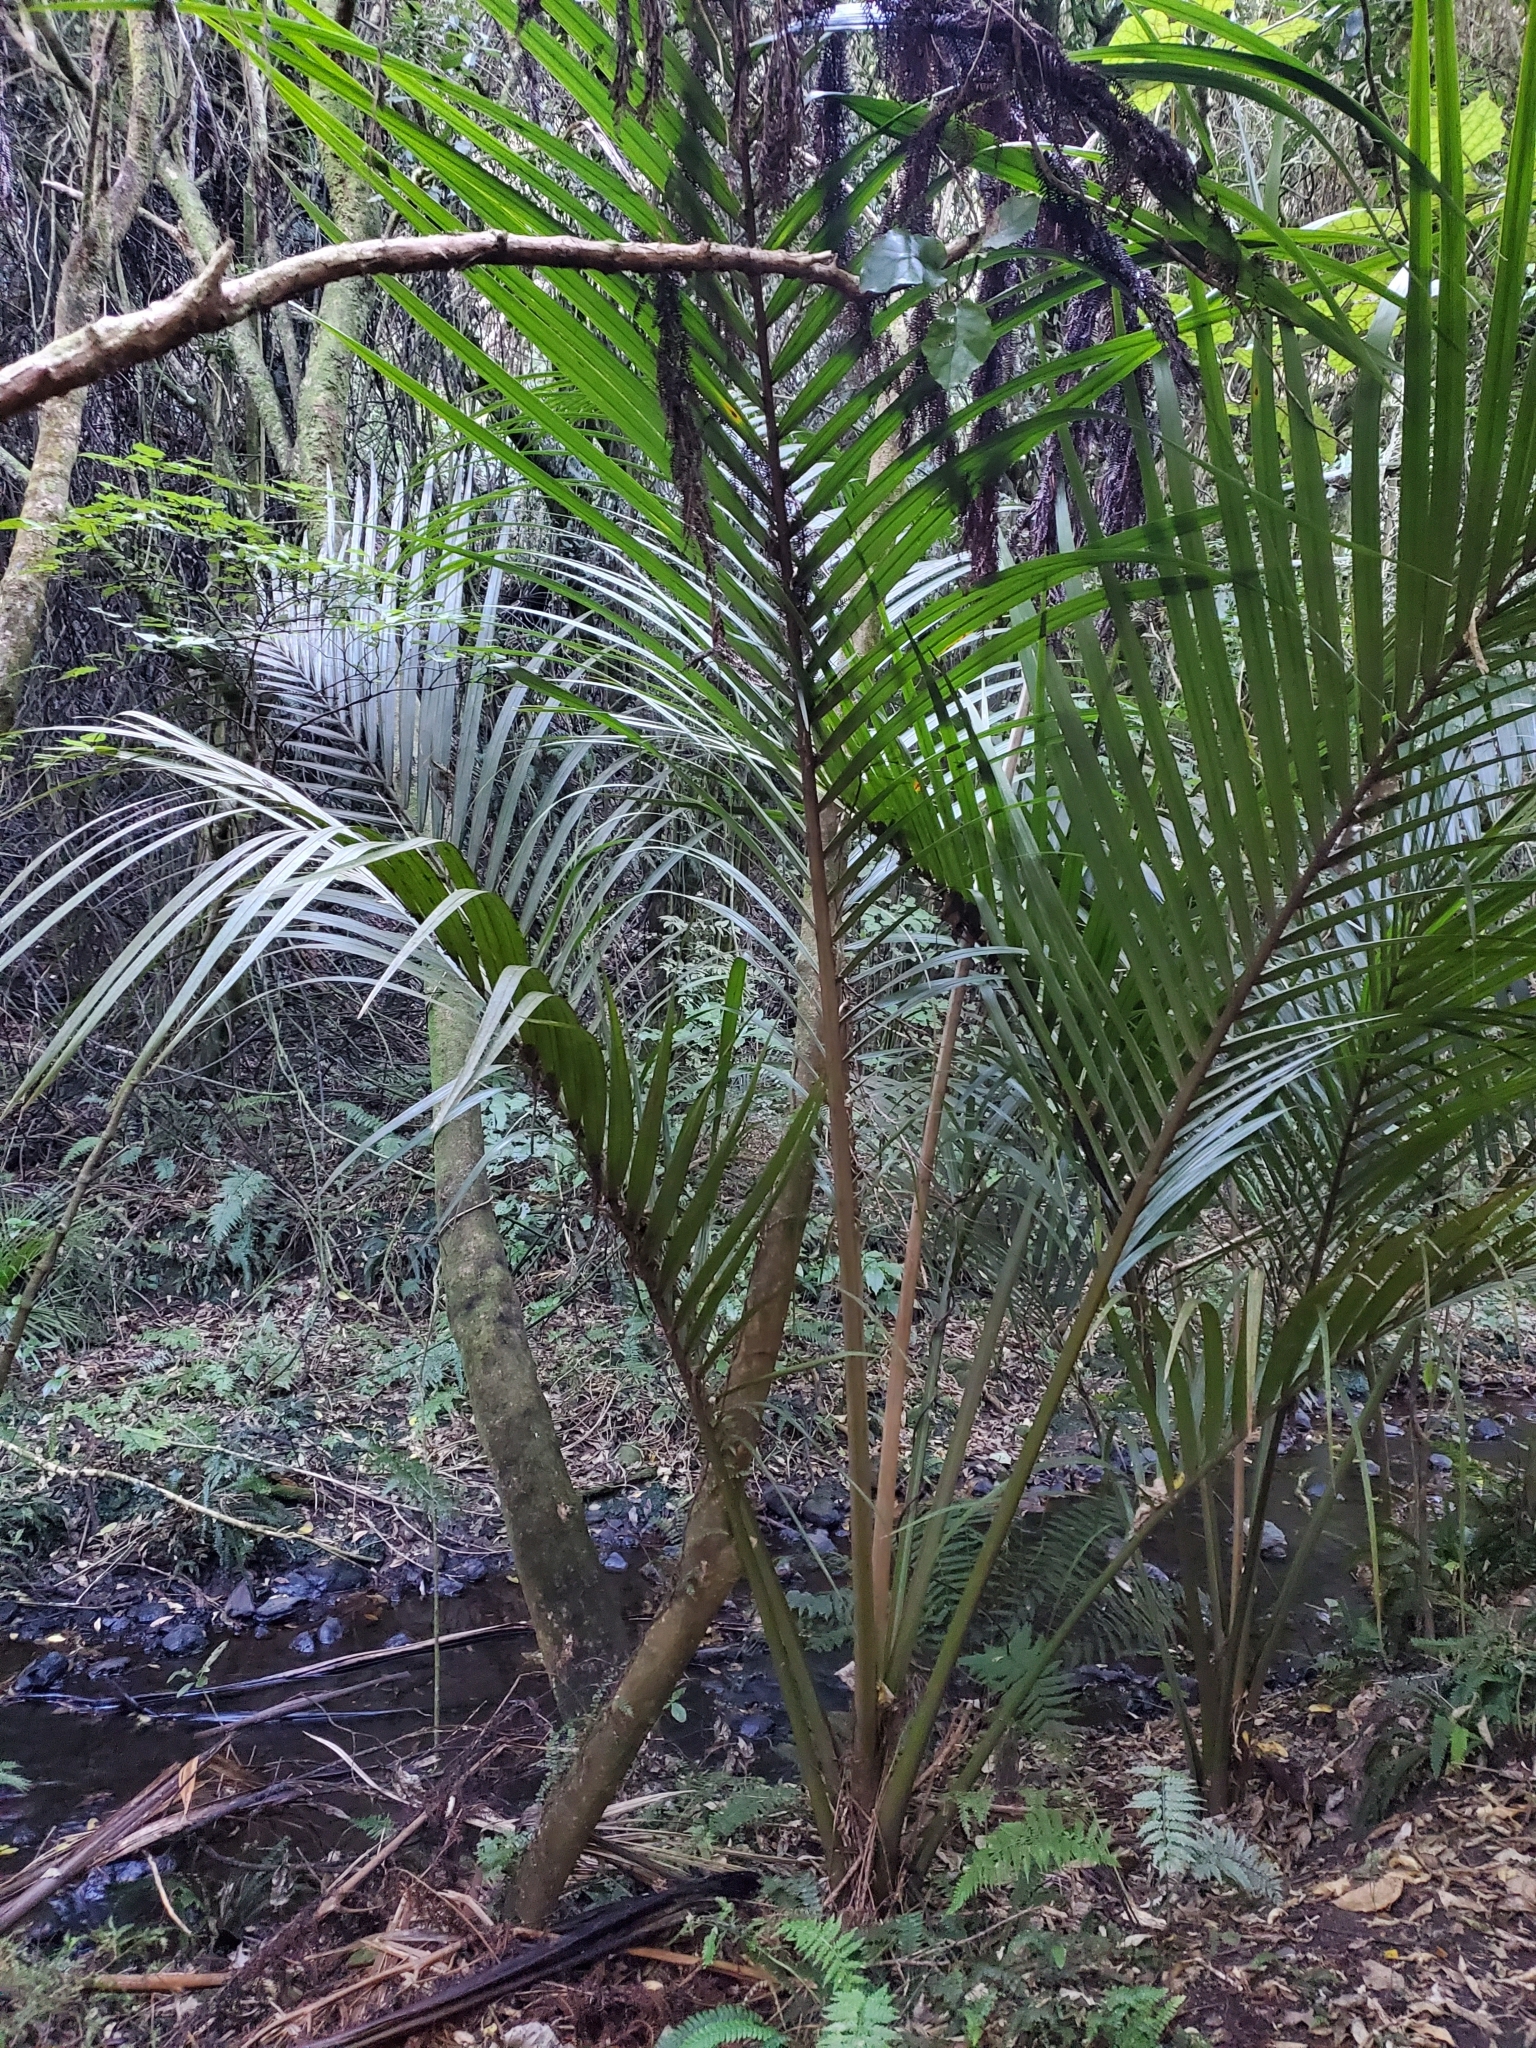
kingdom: Plantae
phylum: Tracheophyta
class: Liliopsida
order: Arecales
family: Arecaceae
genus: Rhopalostylis
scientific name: Rhopalostylis sapida
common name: Feather-duster palm
